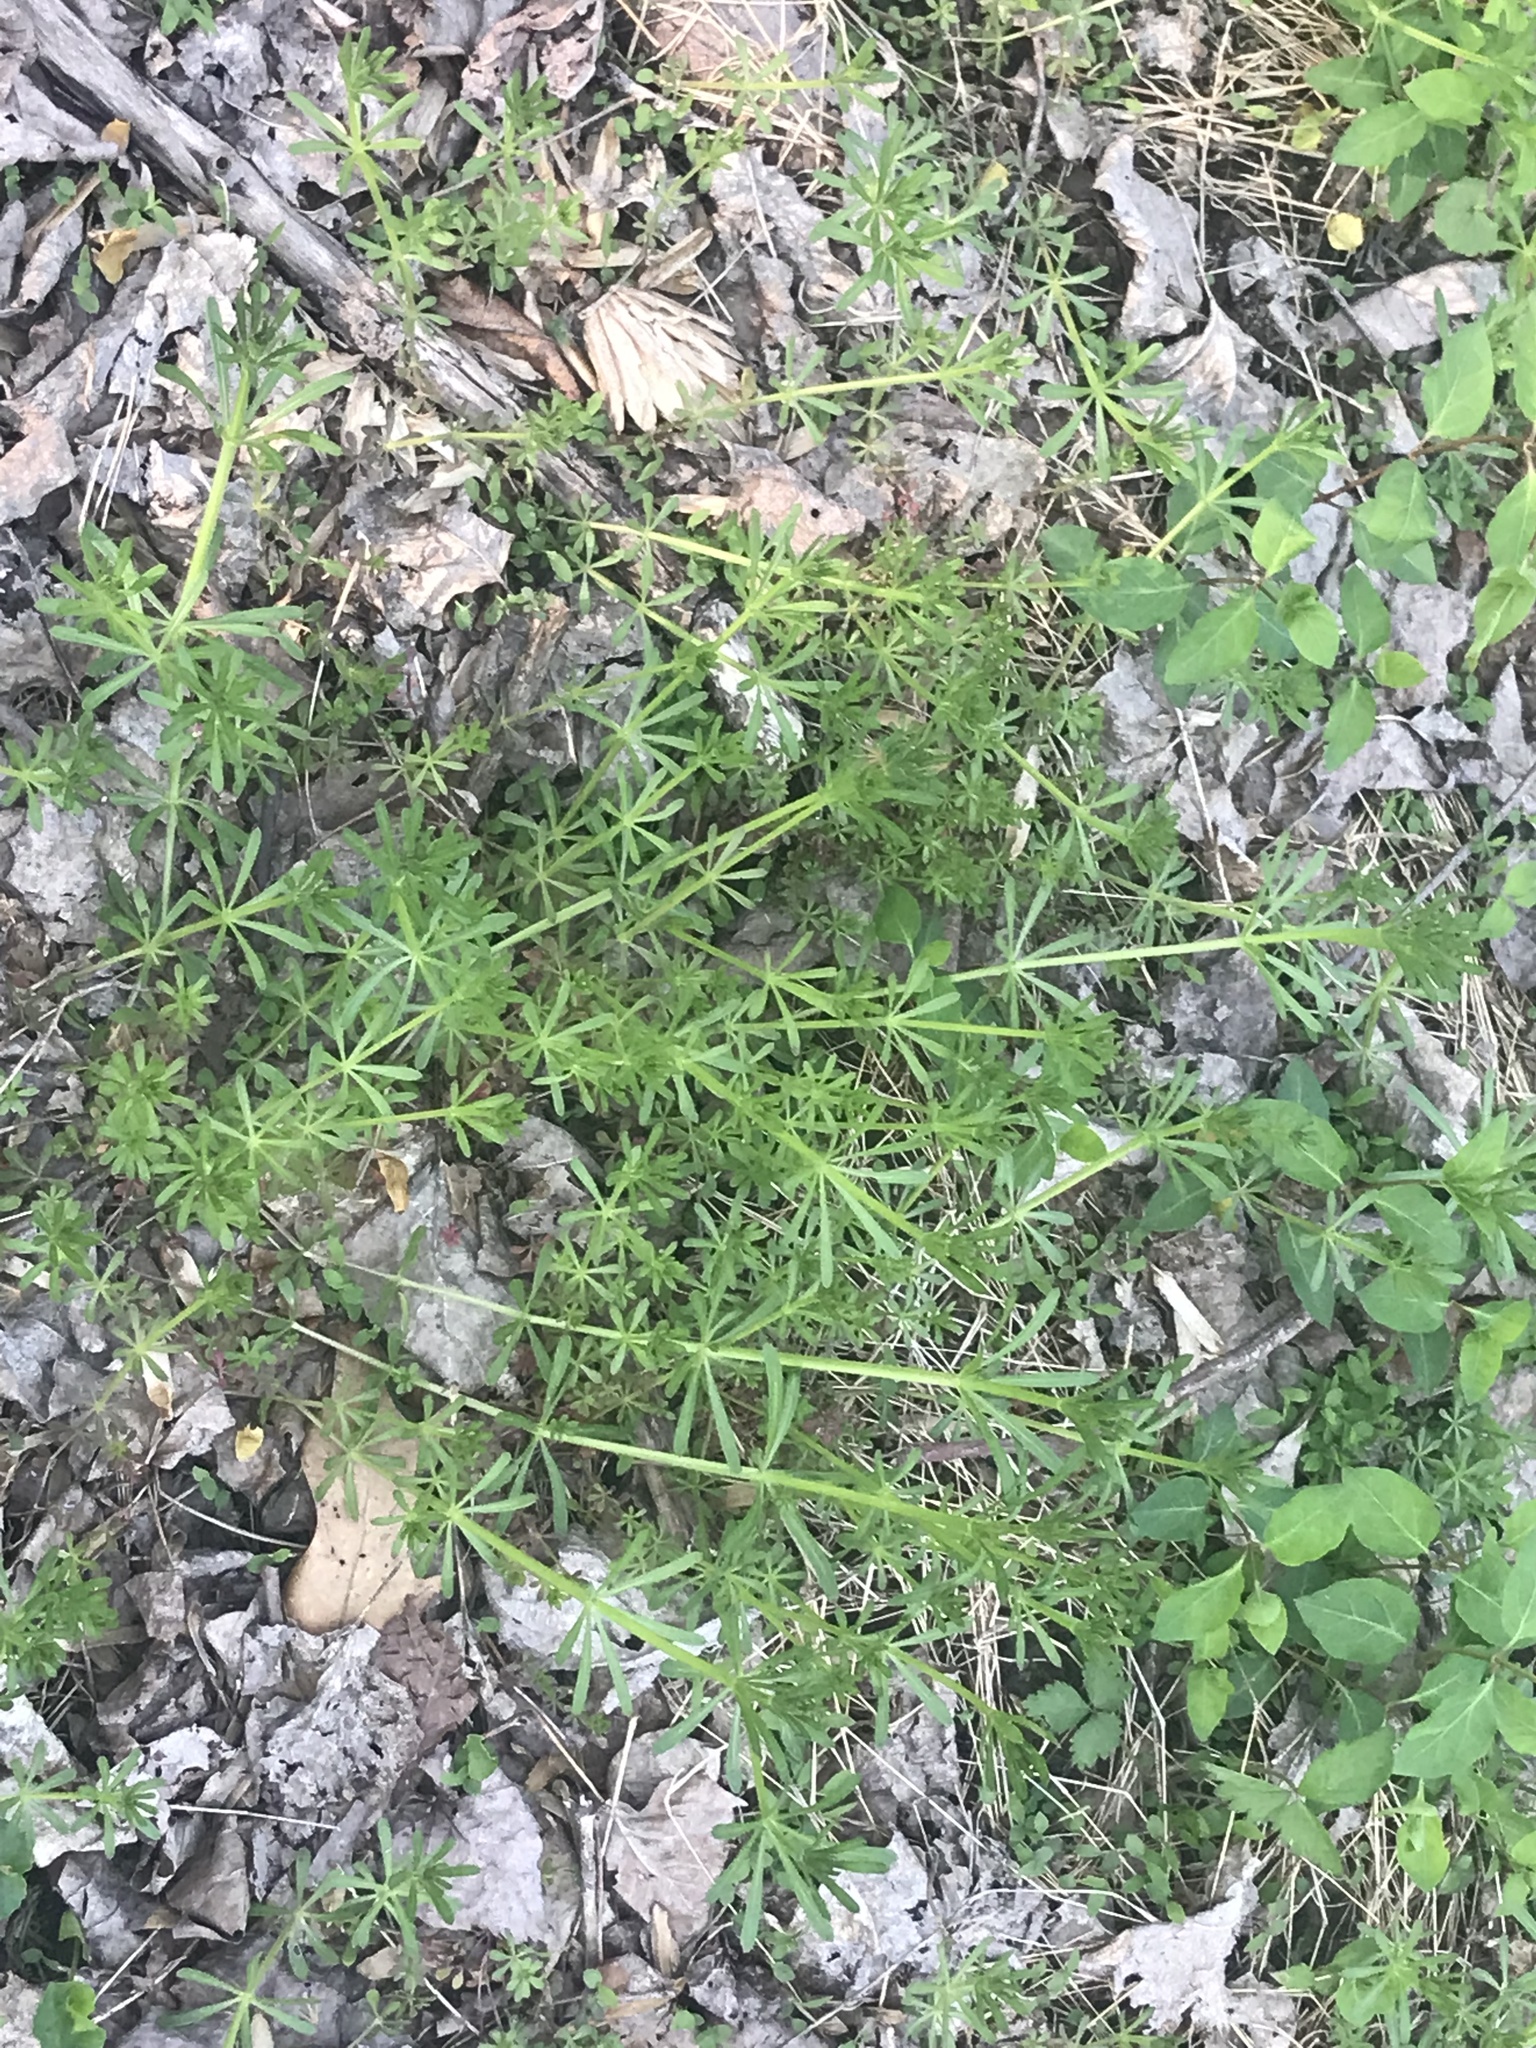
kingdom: Plantae
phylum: Tracheophyta
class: Magnoliopsida
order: Gentianales
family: Rubiaceae
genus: Galium
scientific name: Galium aparine
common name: Cleavers
